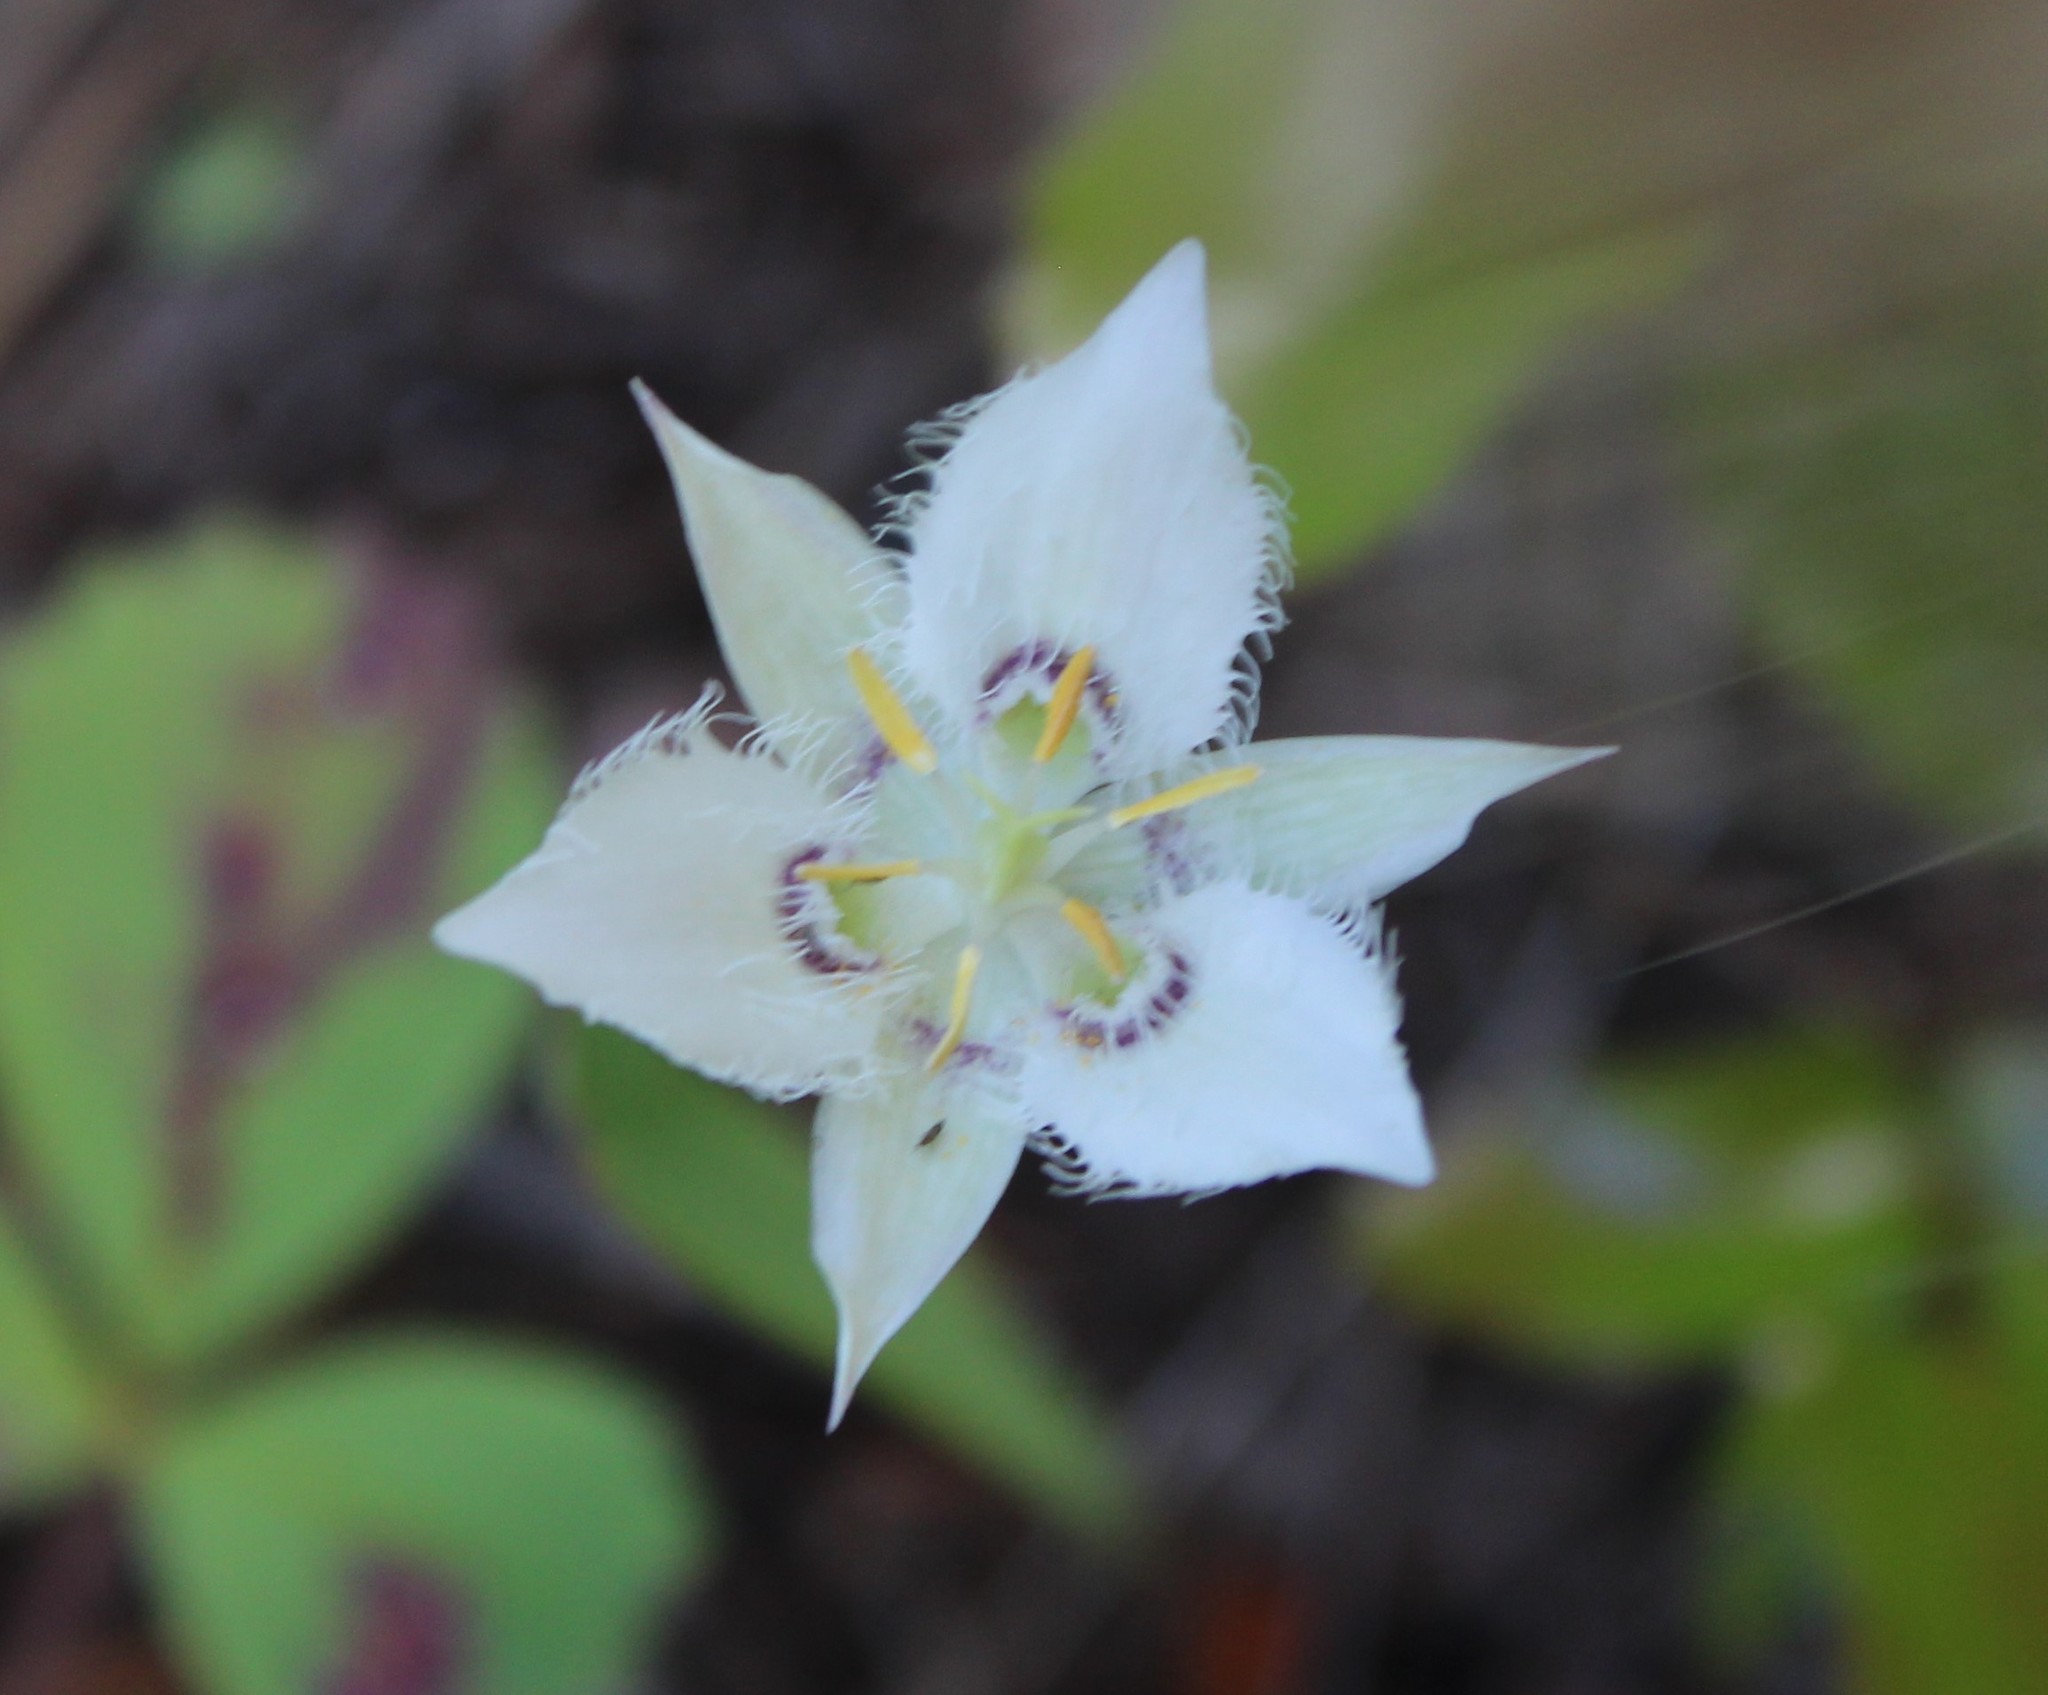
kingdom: Plantae
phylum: Tracheophyta
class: Liliopsida
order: Liliales
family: Liliaceae
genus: Calochortus
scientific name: Calochortus lyallii
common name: Lyall's mariposa lily
